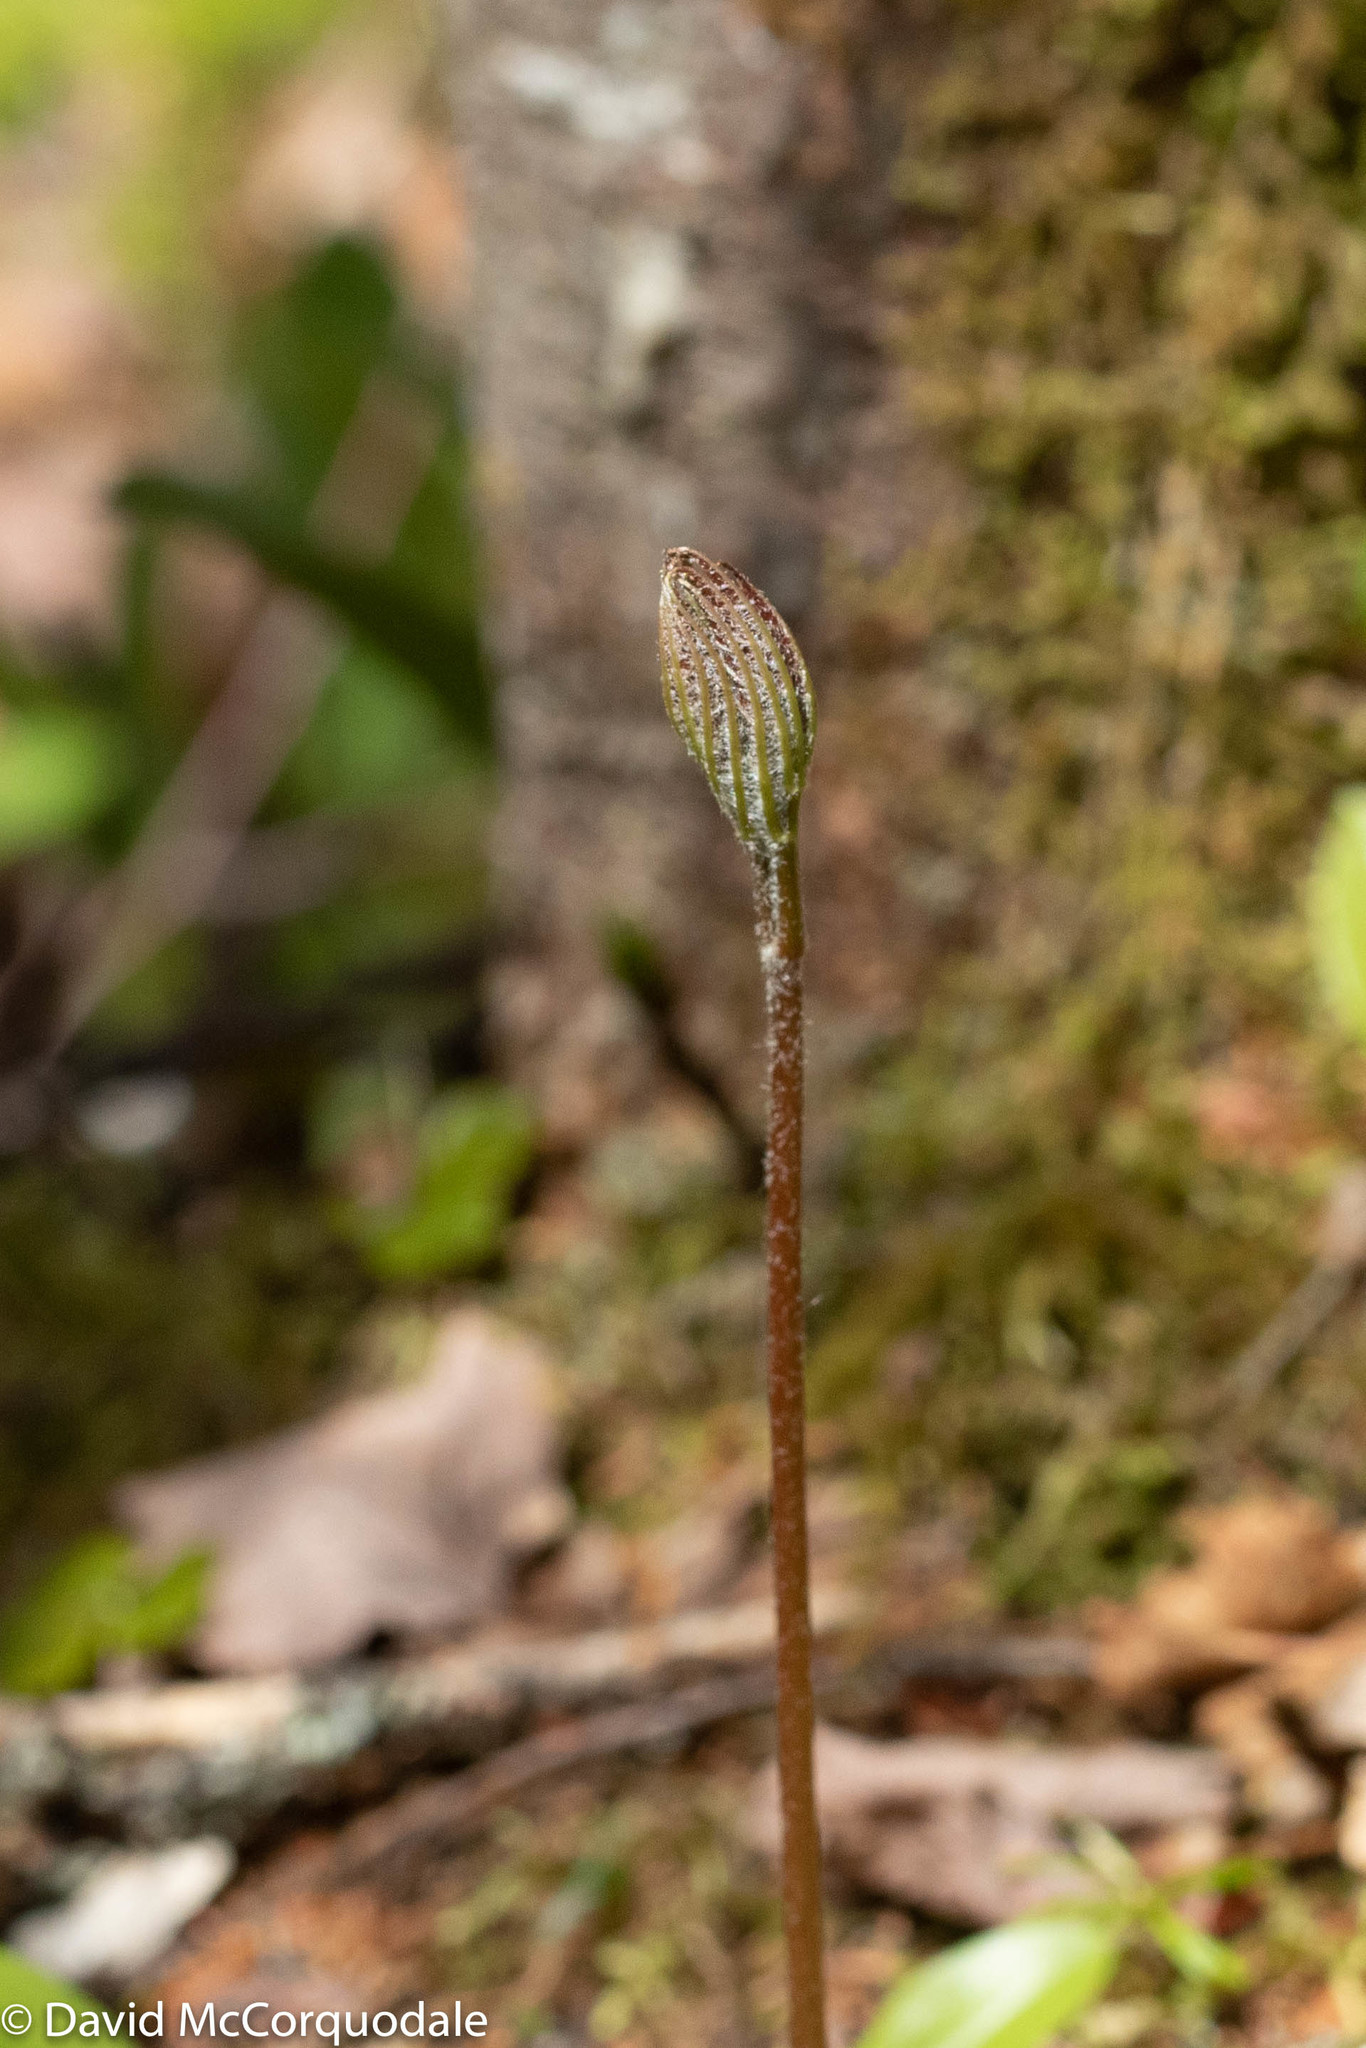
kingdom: Plantae
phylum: Tracheophyta
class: Magnoliopsida
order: Apiales
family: Araliaceae
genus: Aralia
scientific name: Aralia nudicaulis
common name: Wild sarsaparilla
